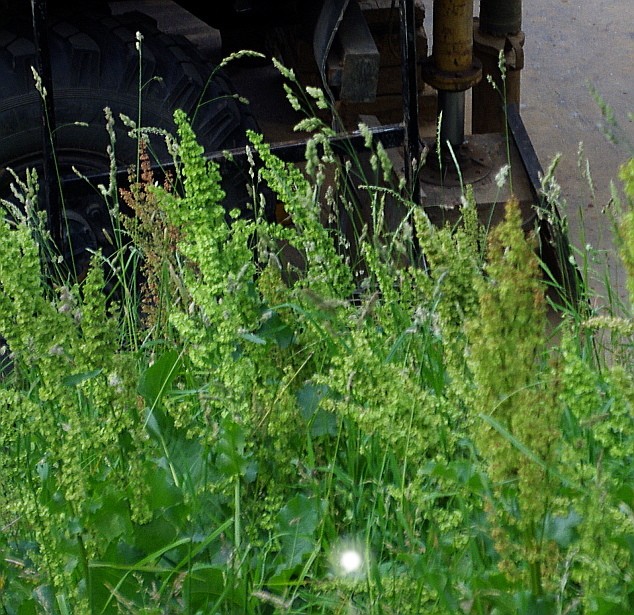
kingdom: Plantae
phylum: Tracheophyta
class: Magnoliopsida
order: Caryophyllales
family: Polygonaceae
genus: Rumex
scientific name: Rumex confertus
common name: Russian dock
